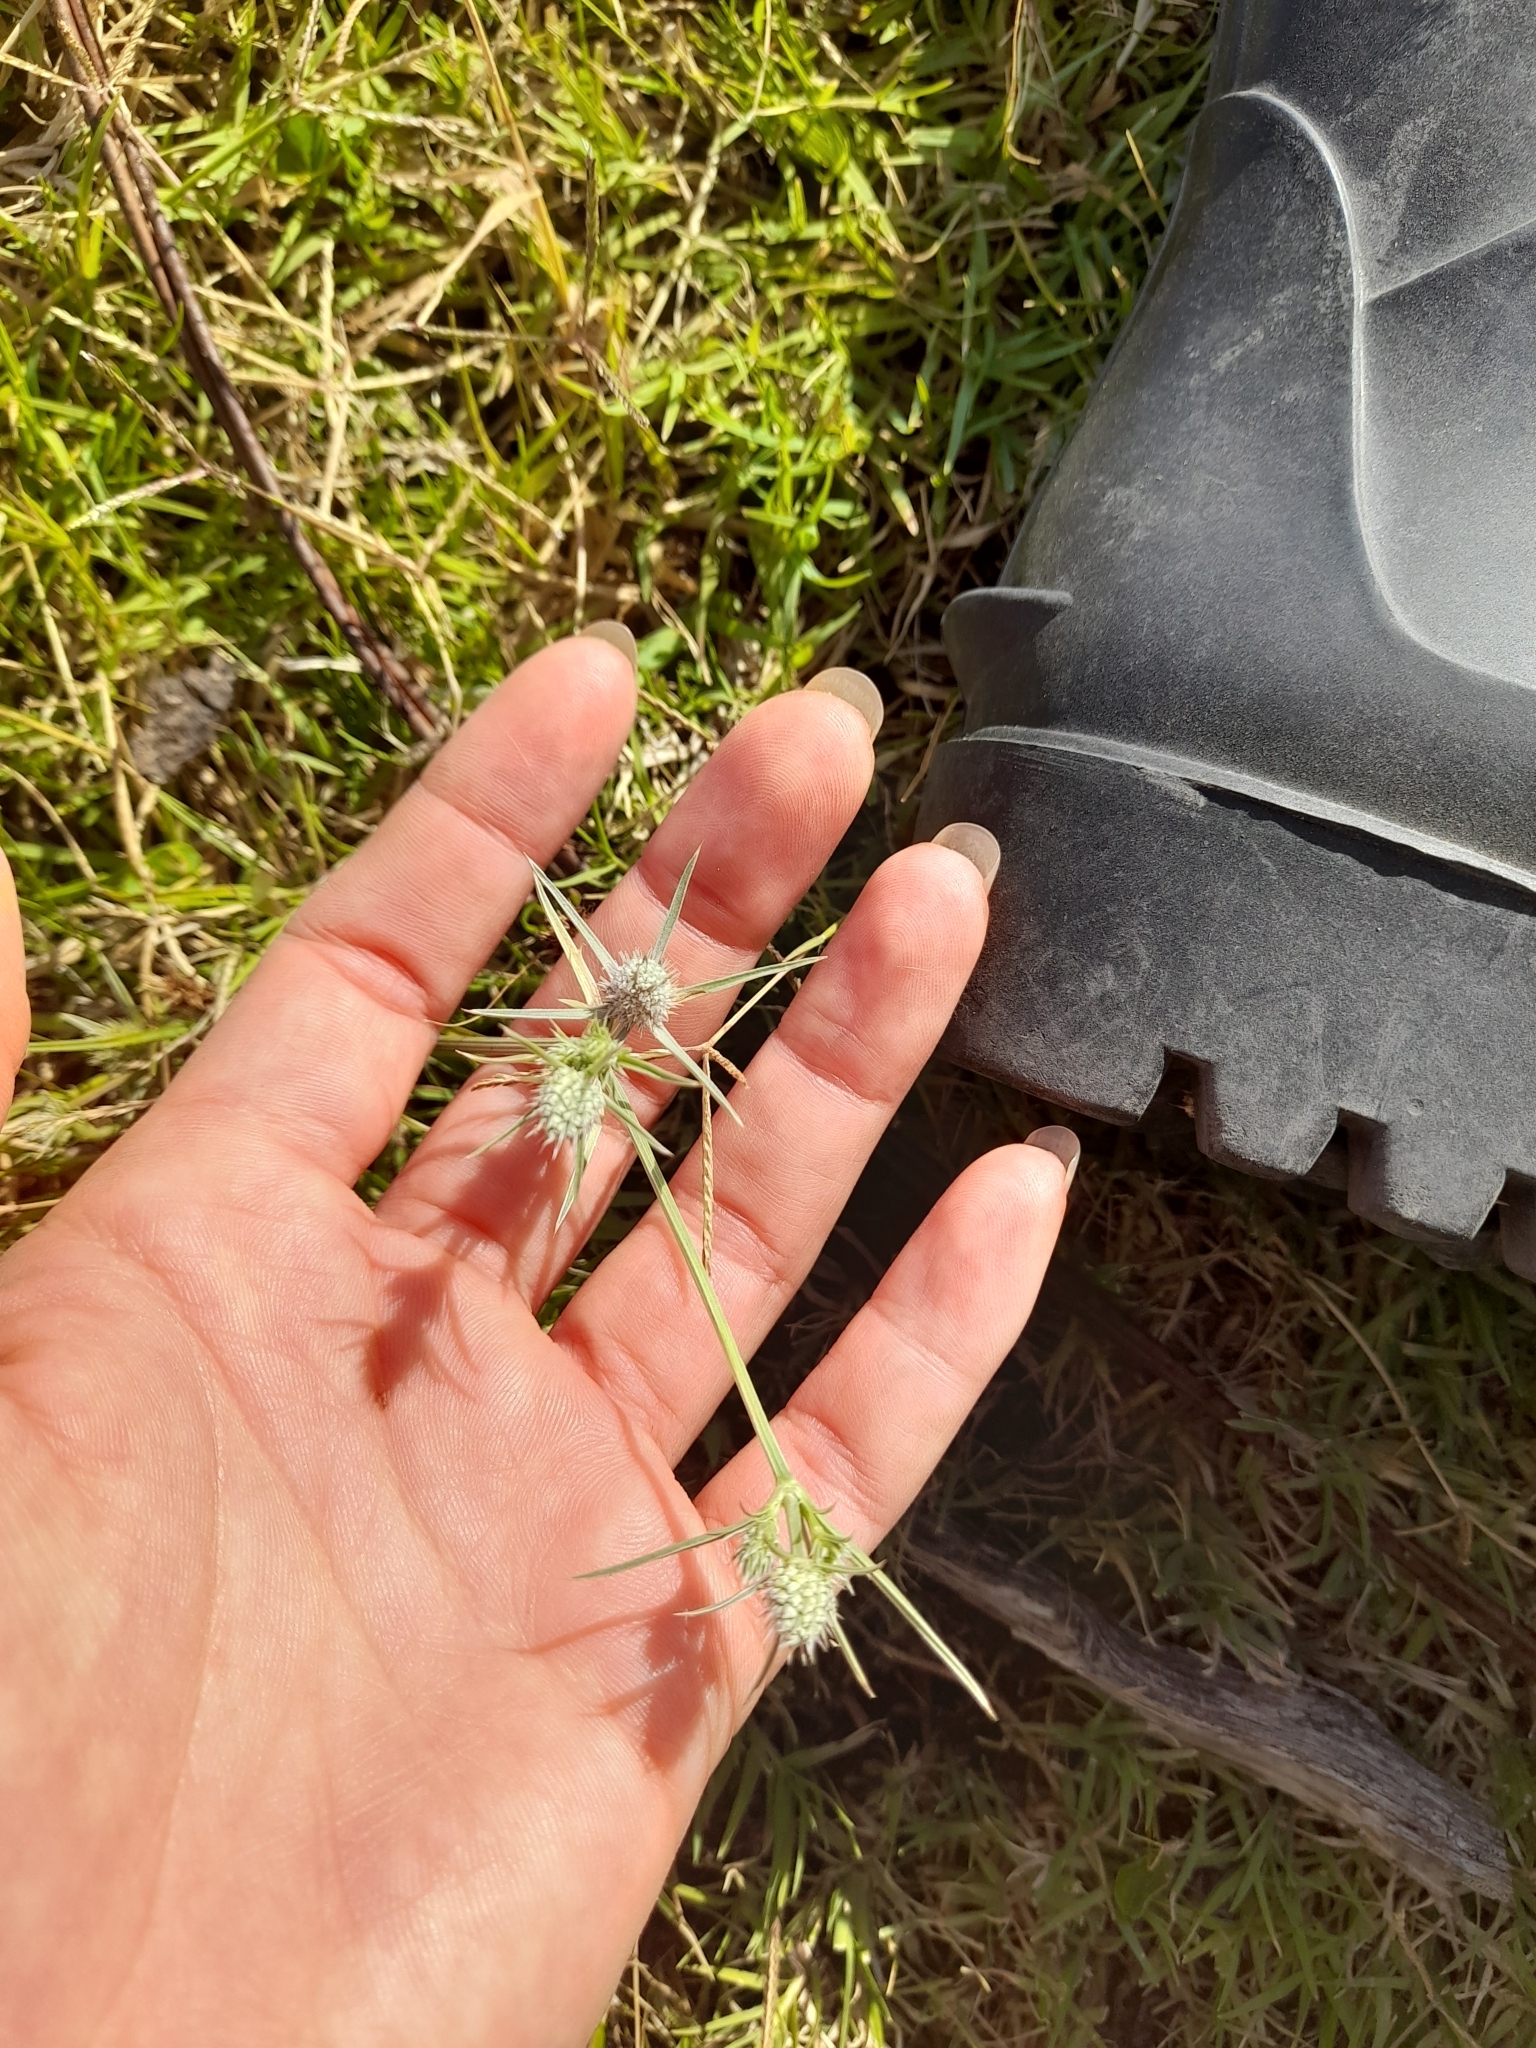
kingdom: Plantae
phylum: Tracheophyta
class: Magnoliopsida
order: Apiales
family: Apiaceae
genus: Eryngium
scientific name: Eryngium echinatum
